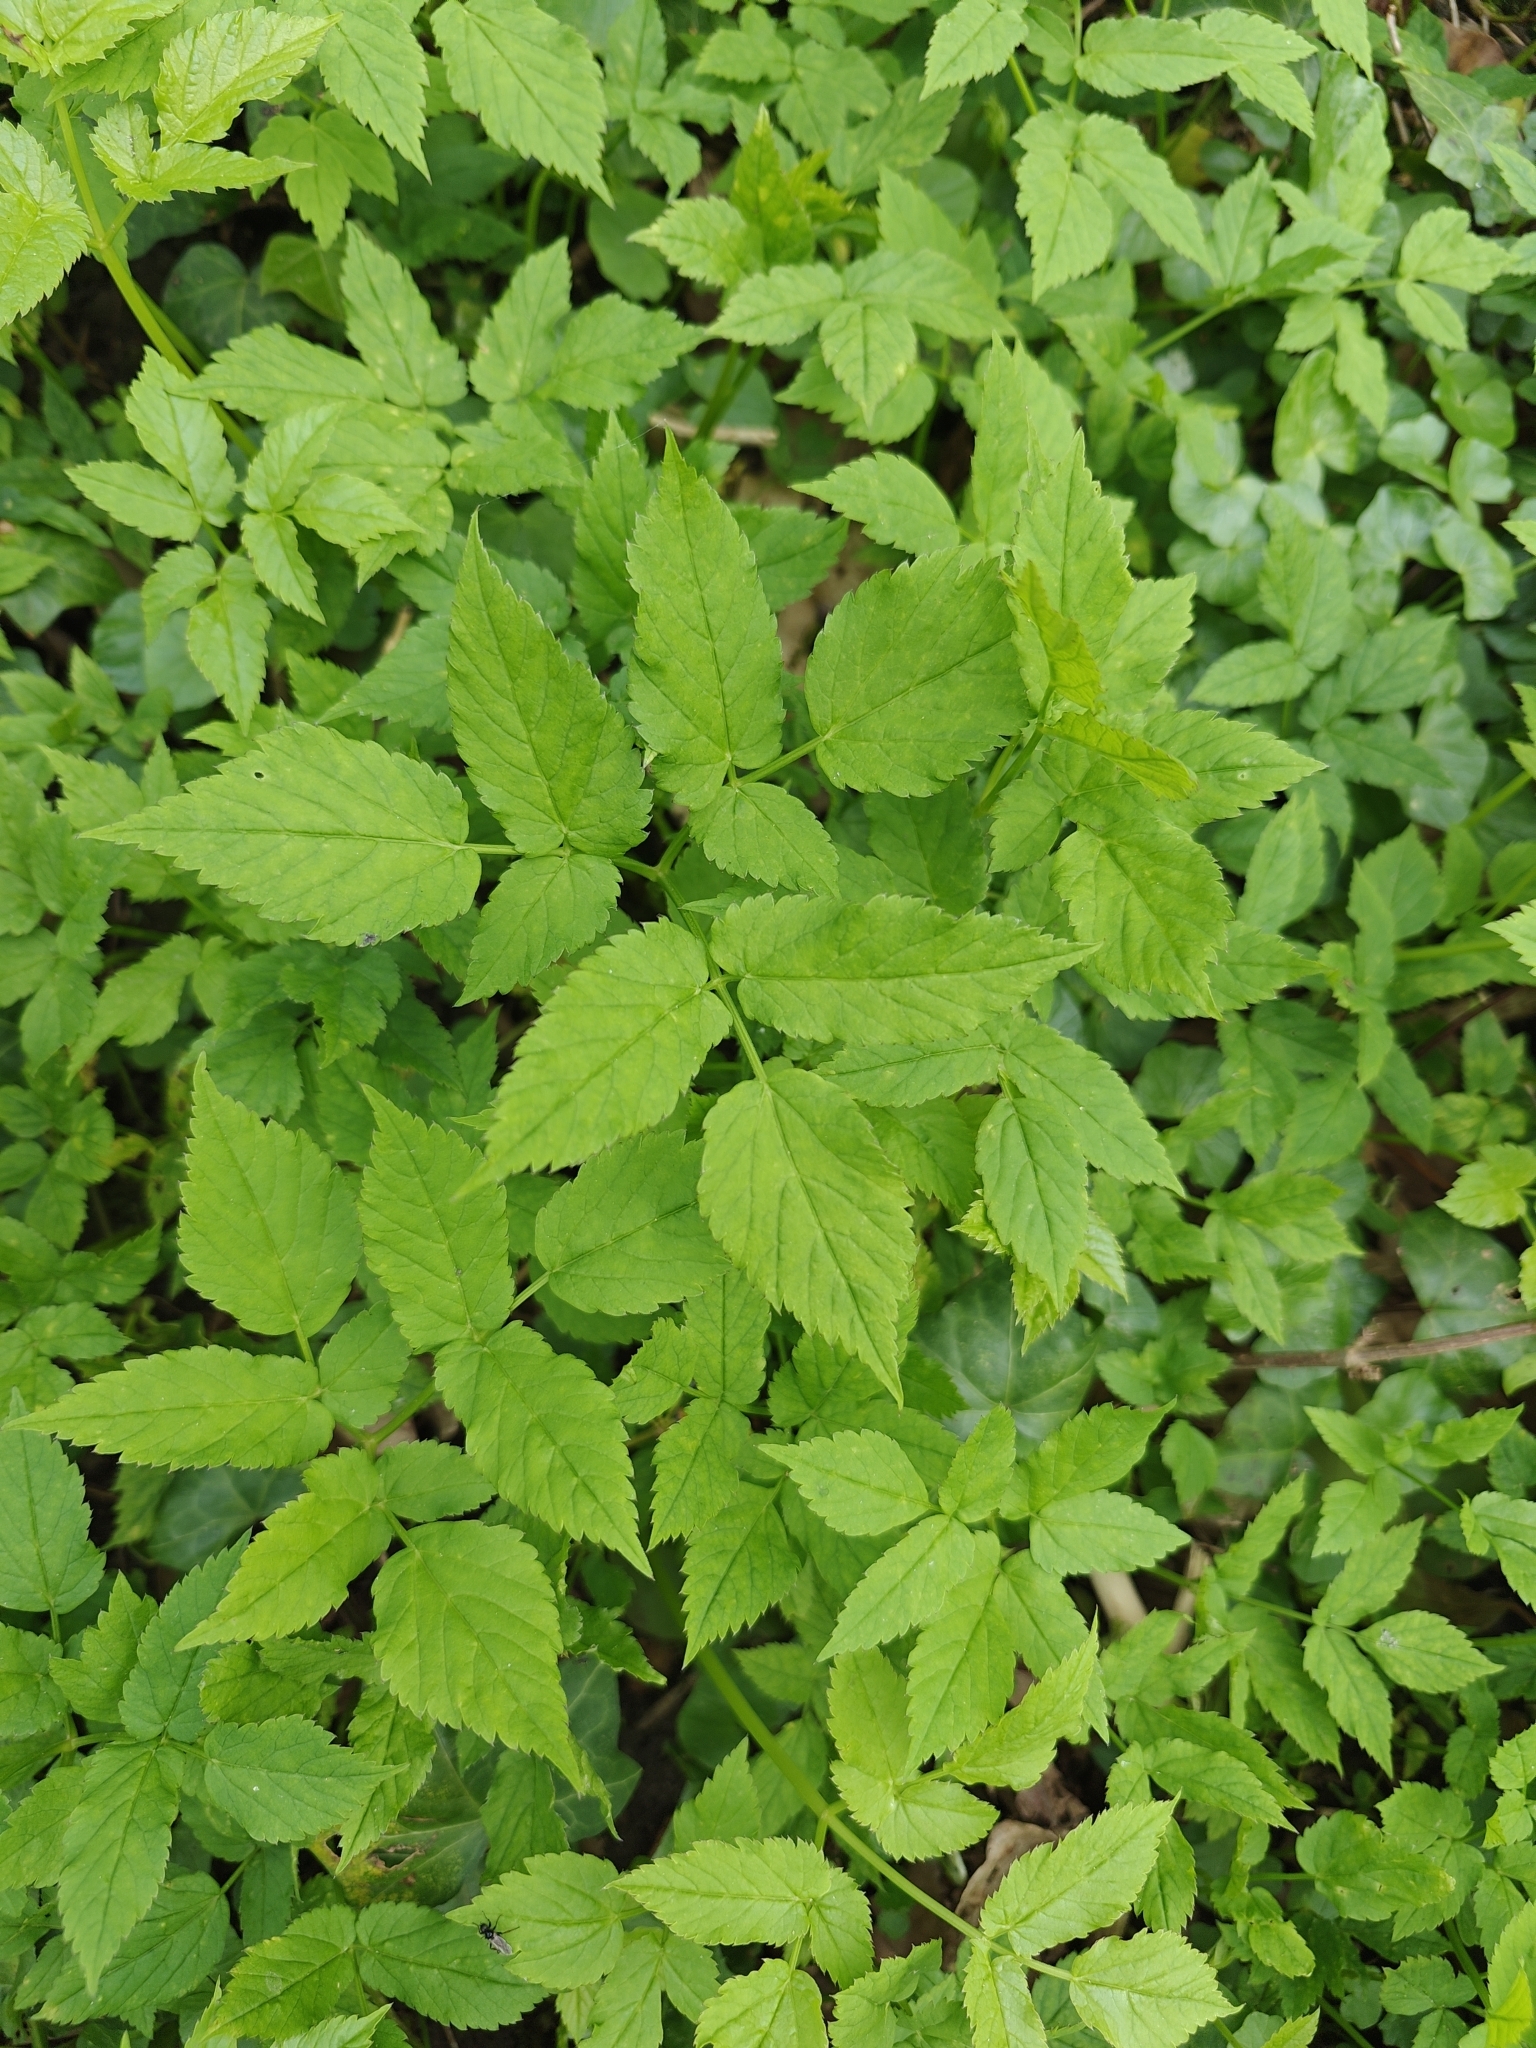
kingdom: Plantae
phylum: Tracheophyta
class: Magnoliopsida
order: Apiales
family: Apiaceae
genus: Aegopodium
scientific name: Aegopodium podagraria
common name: Ground-elder
